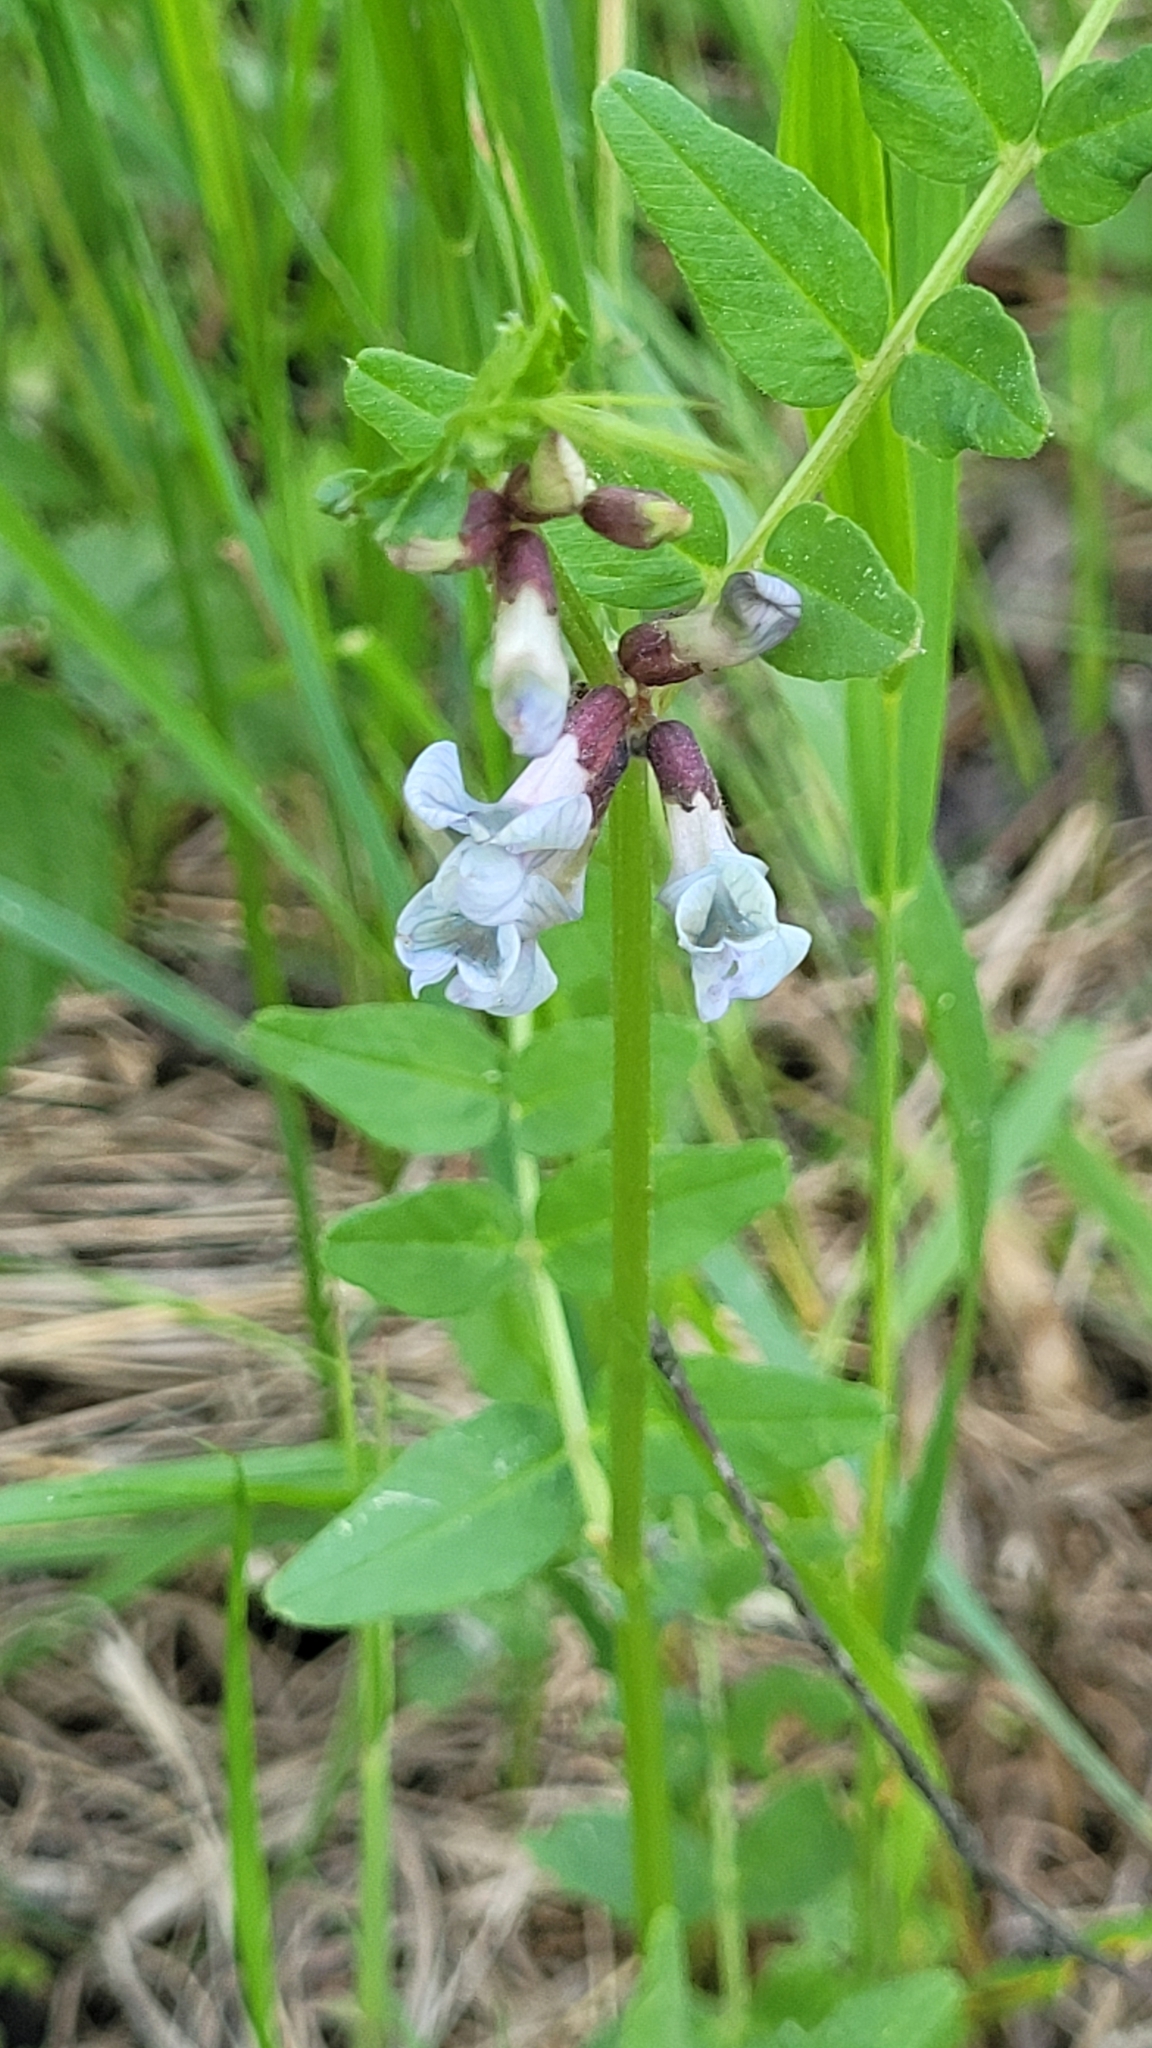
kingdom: Plantae
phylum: Tracheophyta
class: Magnoliopsida
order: Fabales
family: Fabaceae
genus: Vicia
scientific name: Vicia sepium
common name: Bush vetch
